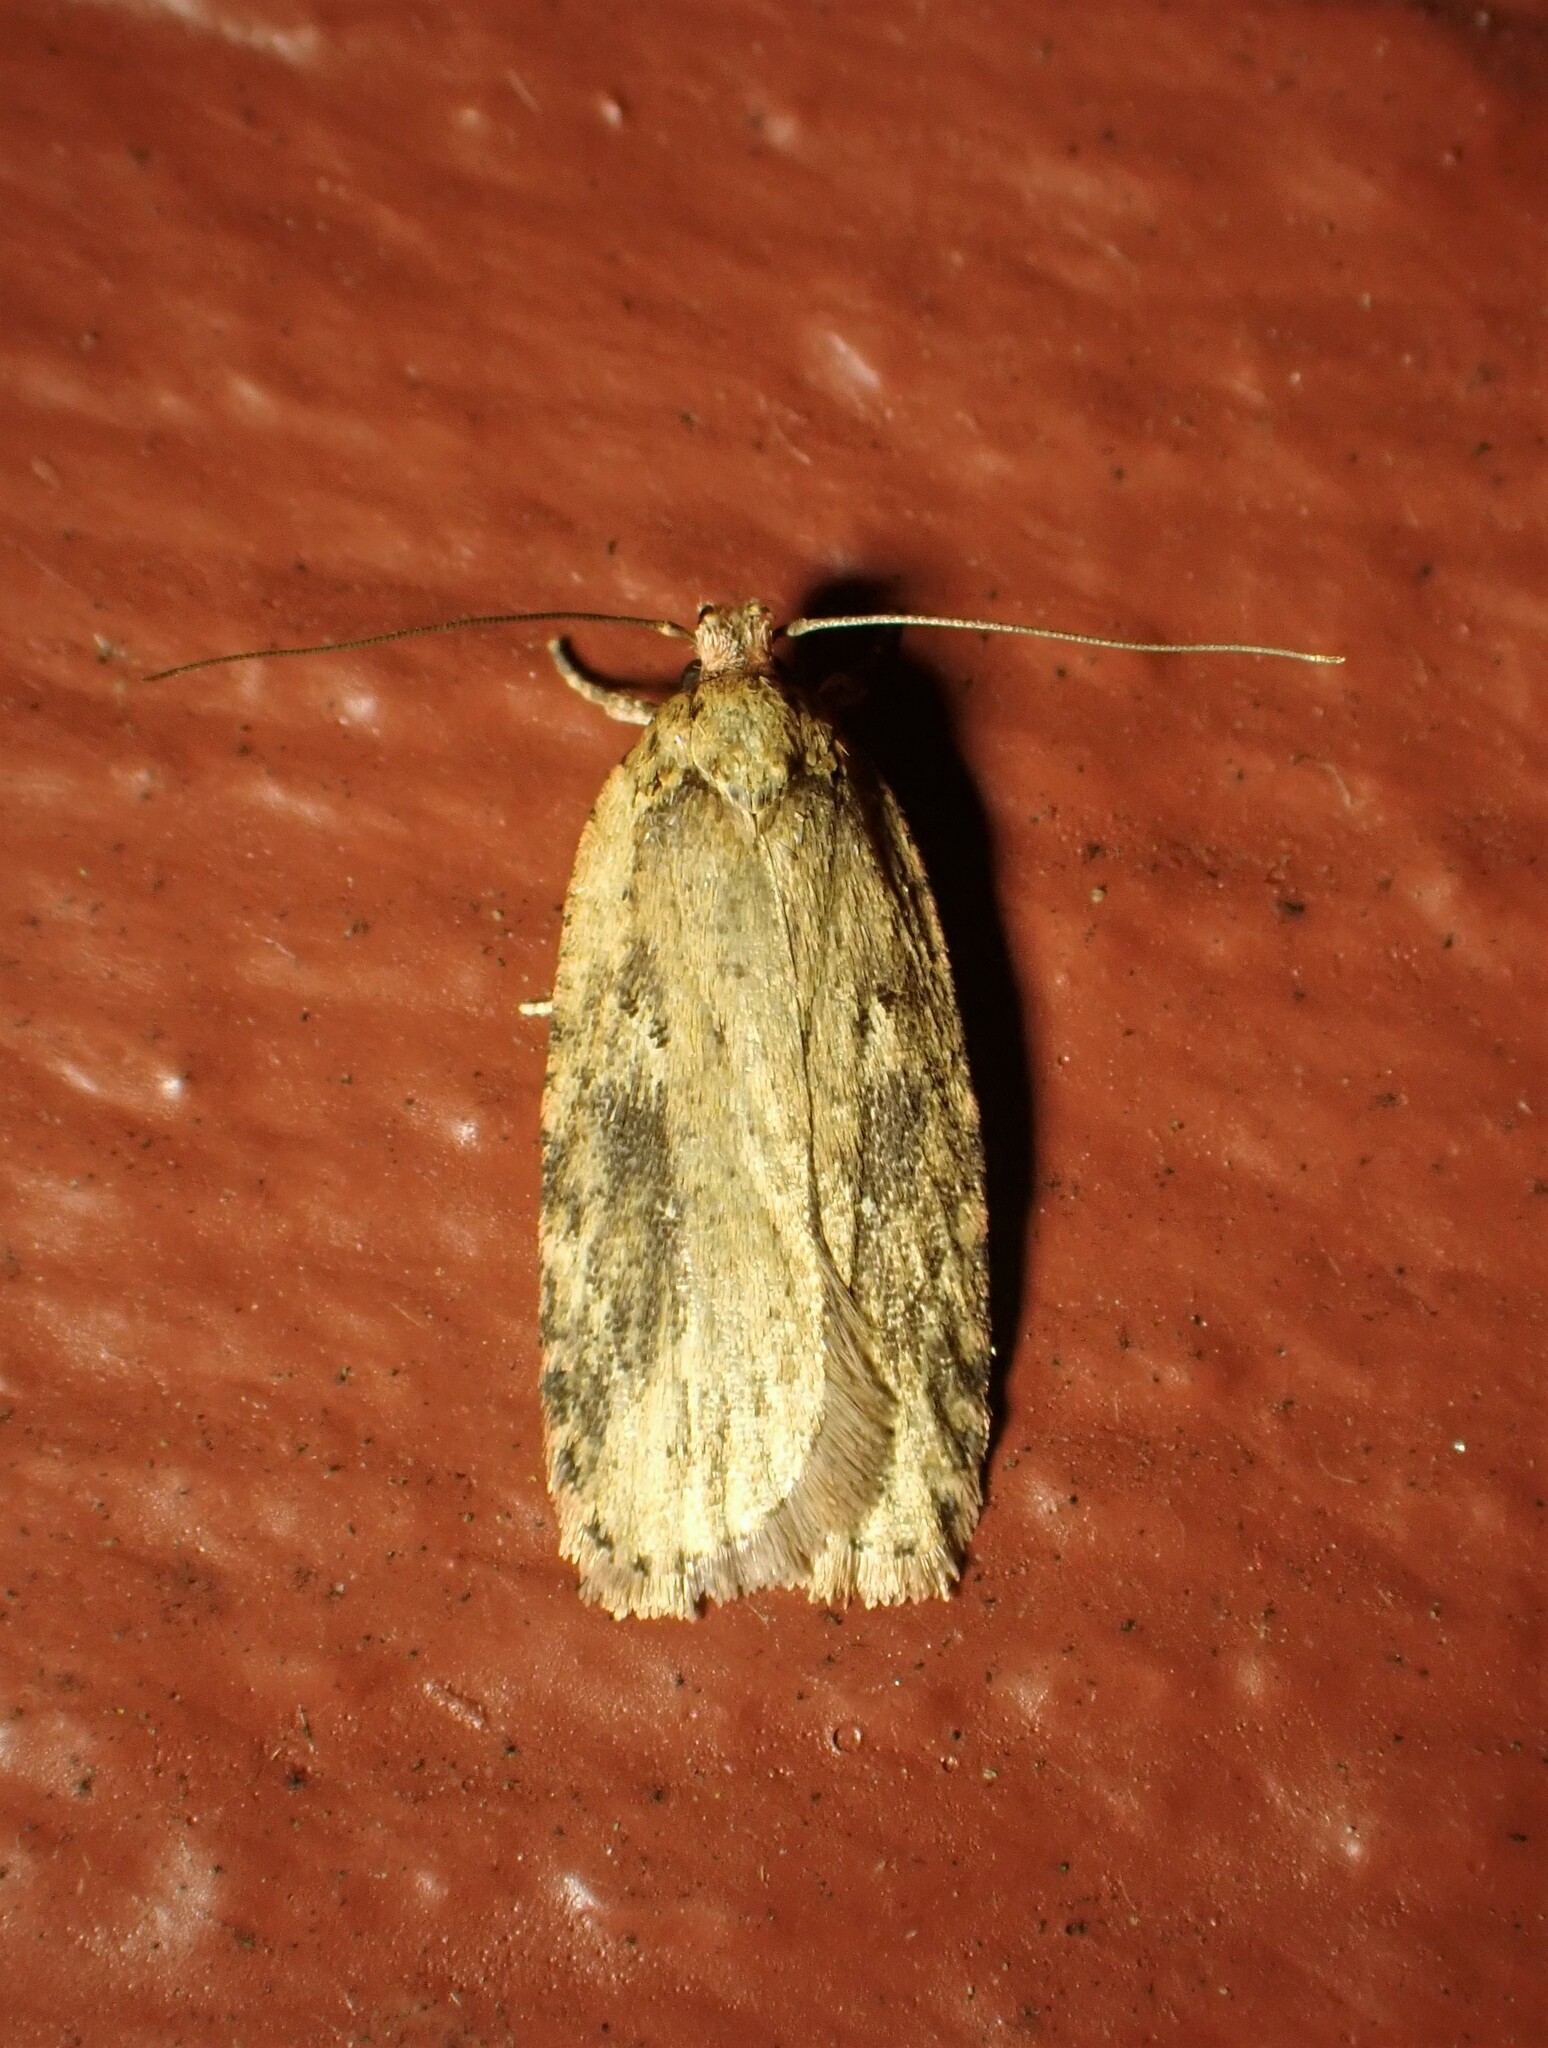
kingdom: Animalia
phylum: Arthropoda
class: Insecta
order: Lepidoptera
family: Depressariidae
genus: Agonopterix
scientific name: Agonopterix pulvipennella
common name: Goldenrod leafffolder
